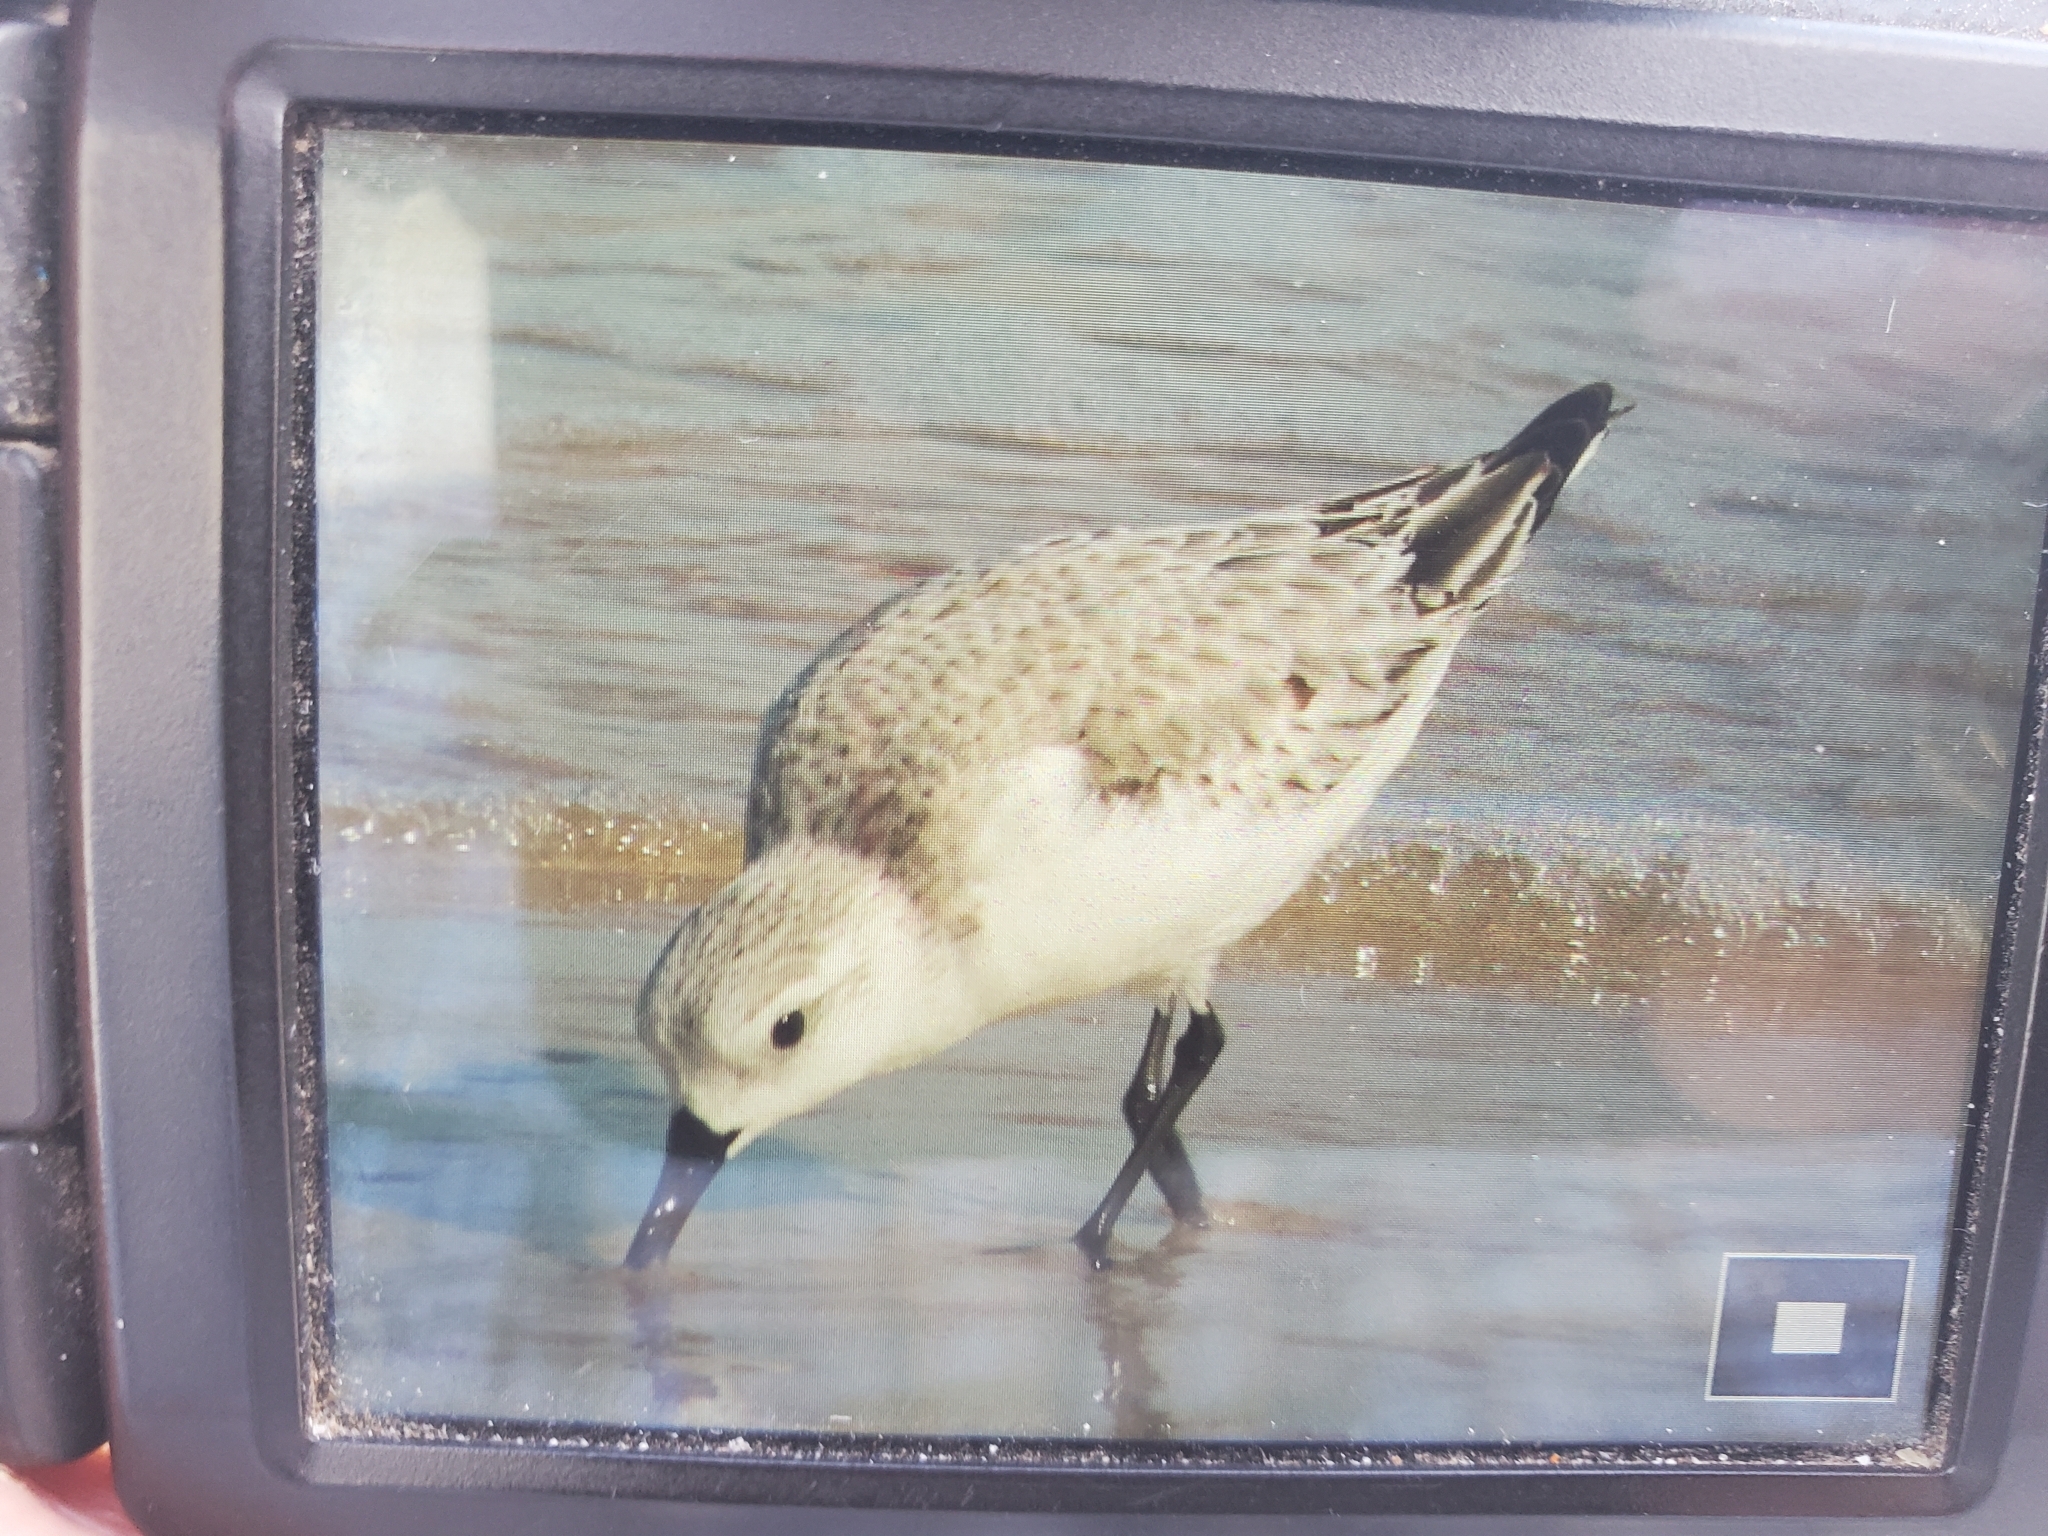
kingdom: Animalia
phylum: Chordata
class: Aves
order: Charadriiformes
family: Scolopacidae
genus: Calidris
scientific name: Calidris alba
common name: Sanderling
